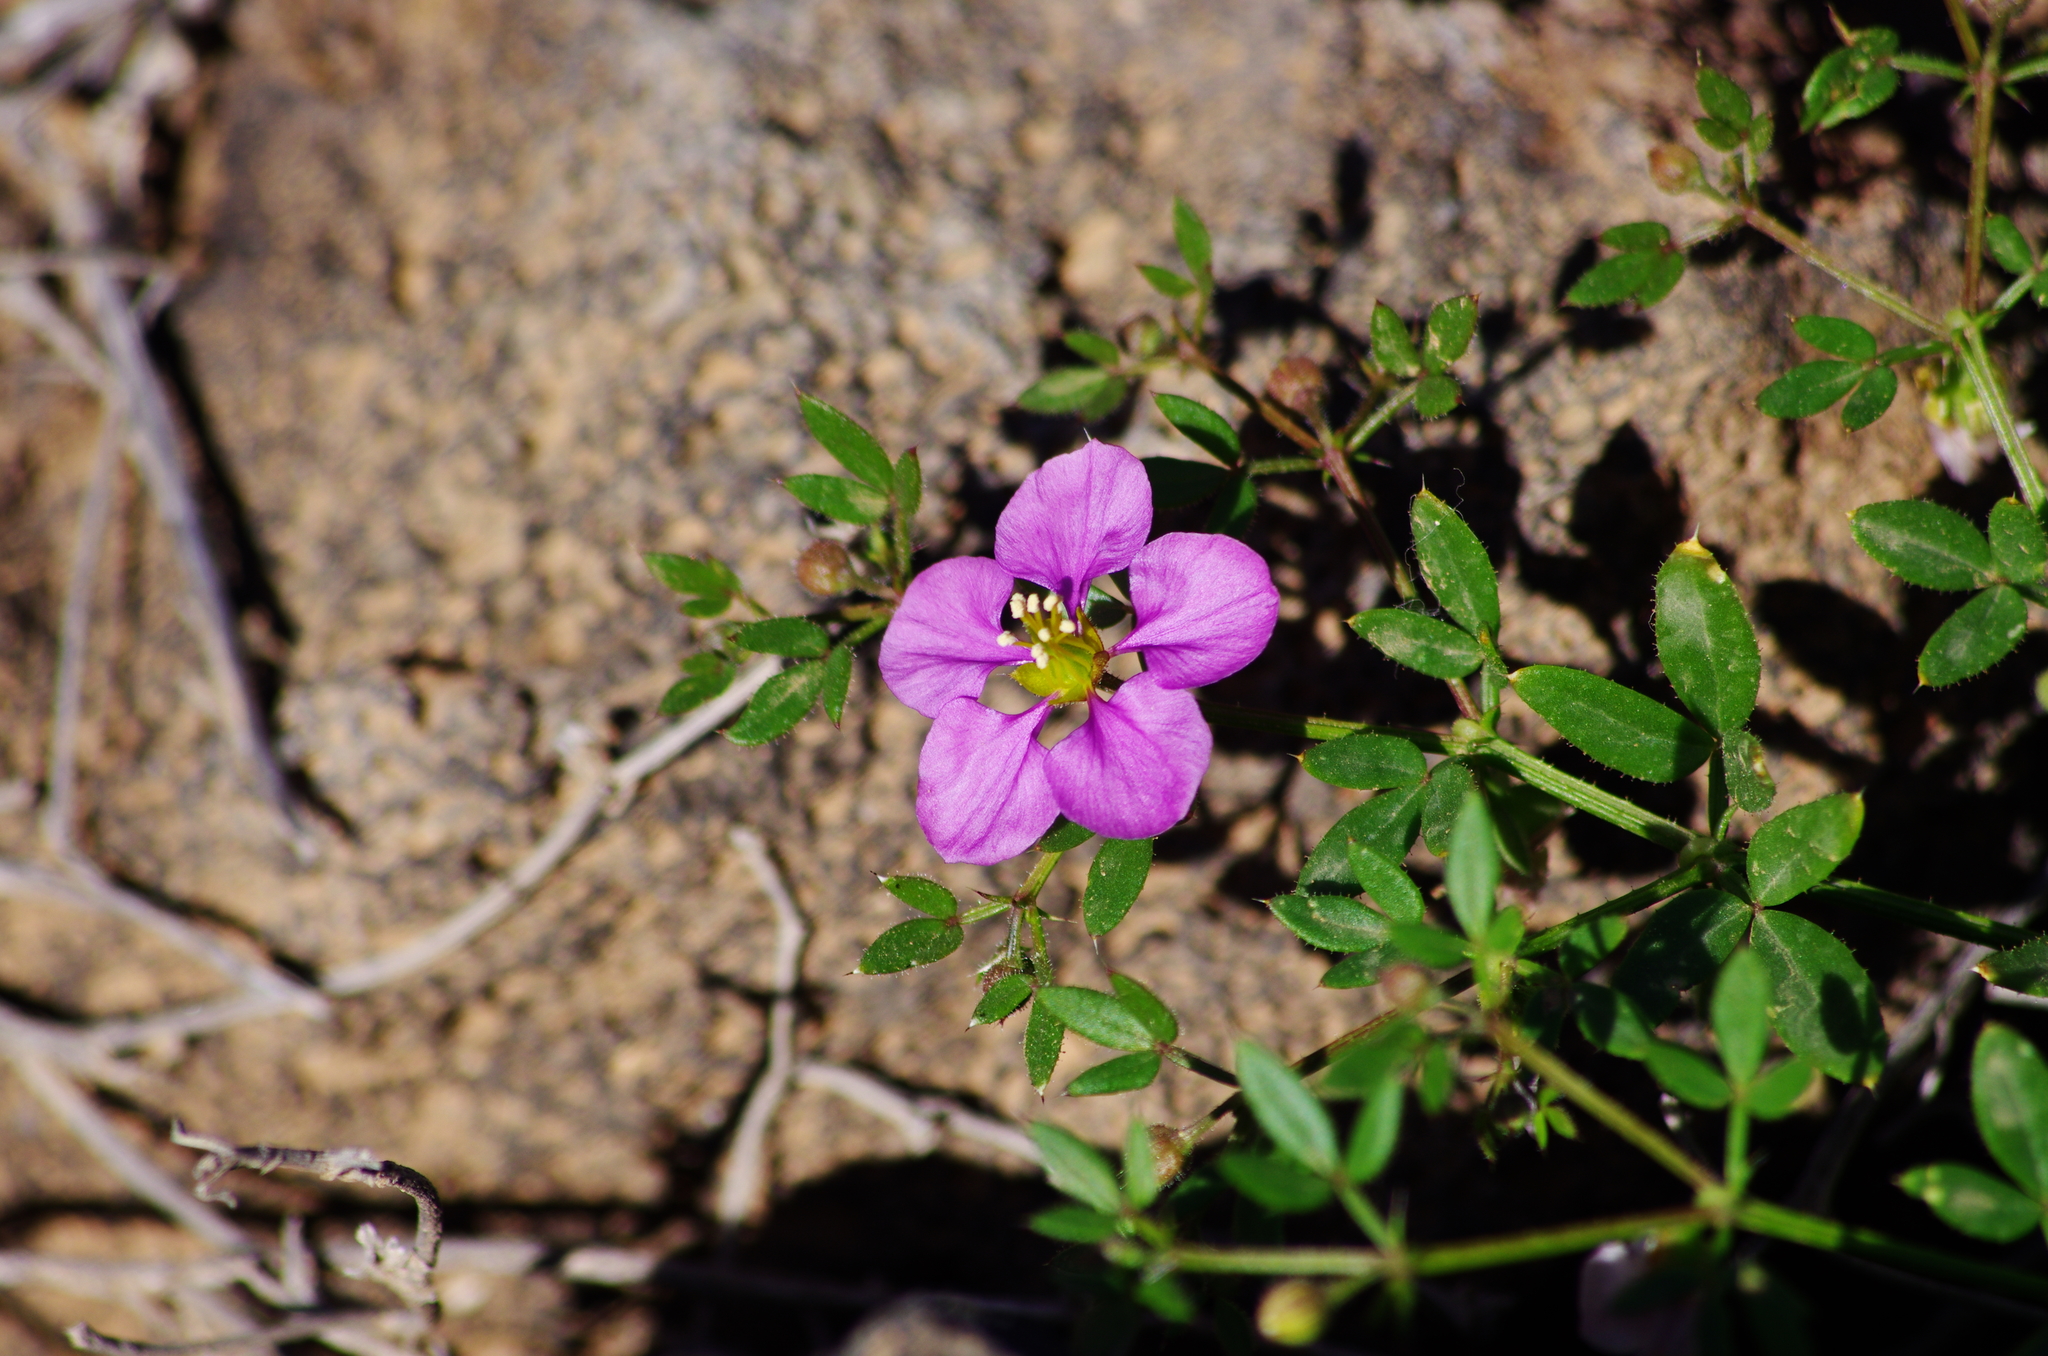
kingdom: Plantae
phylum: Tracheophyta
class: Magnoliopsida
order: Zygophyllales
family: Zygophyllaceae
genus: Fagonia
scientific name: Fagonia cretica
